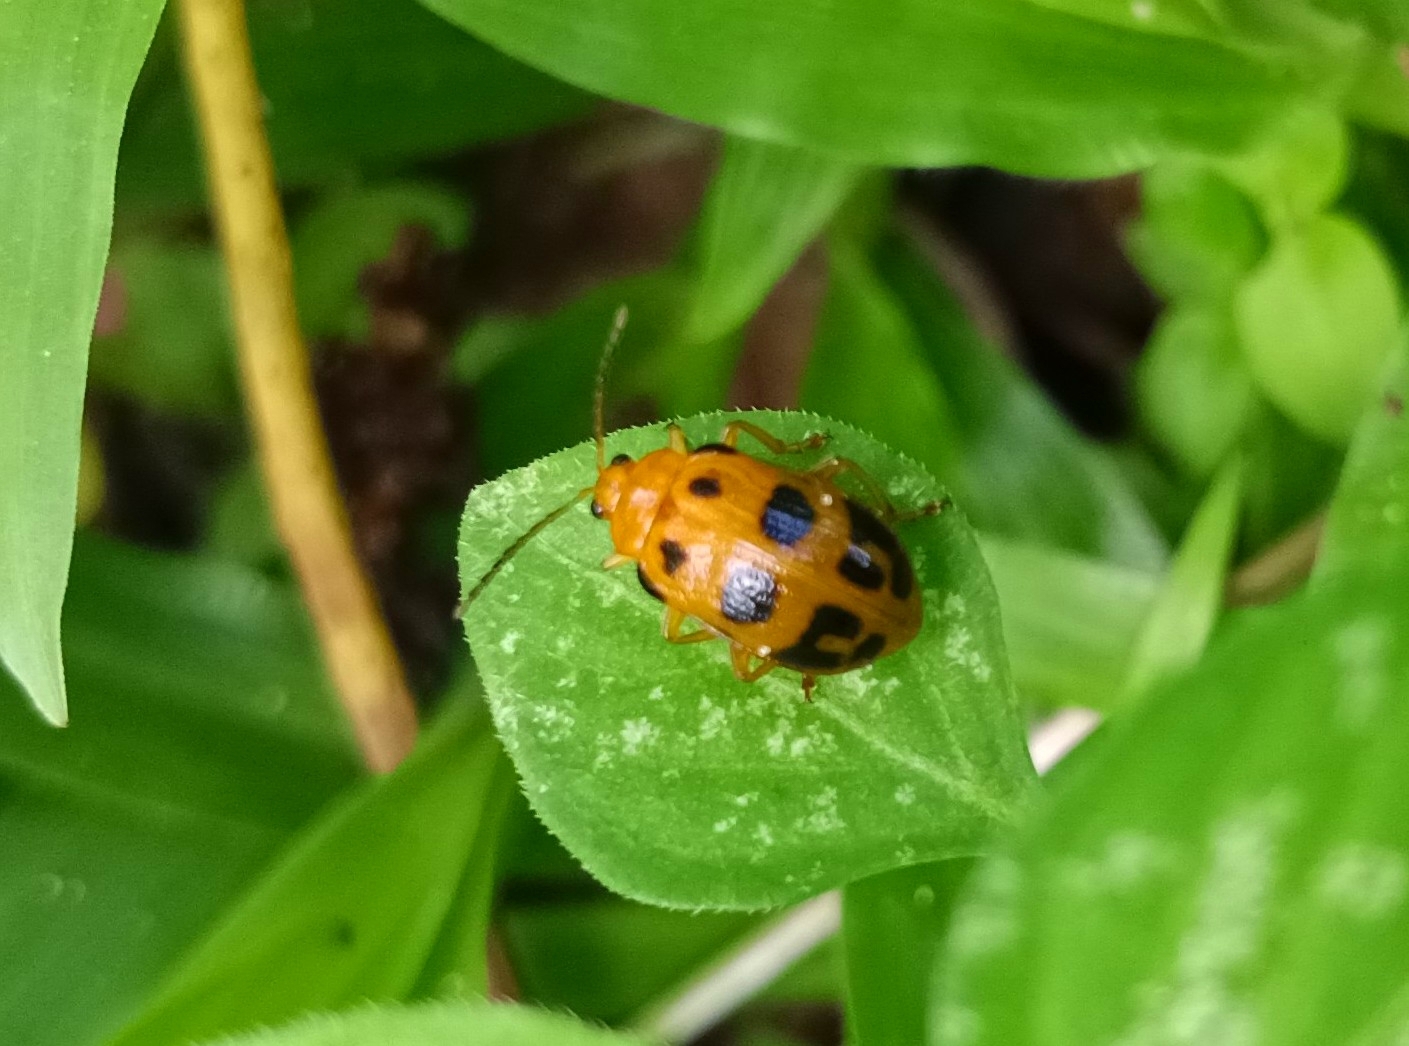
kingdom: Animalia
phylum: Arthropoda
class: Insecta
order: Coleoptera
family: Chrysomelidae
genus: Sphenoraia
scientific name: Sphenoraia
